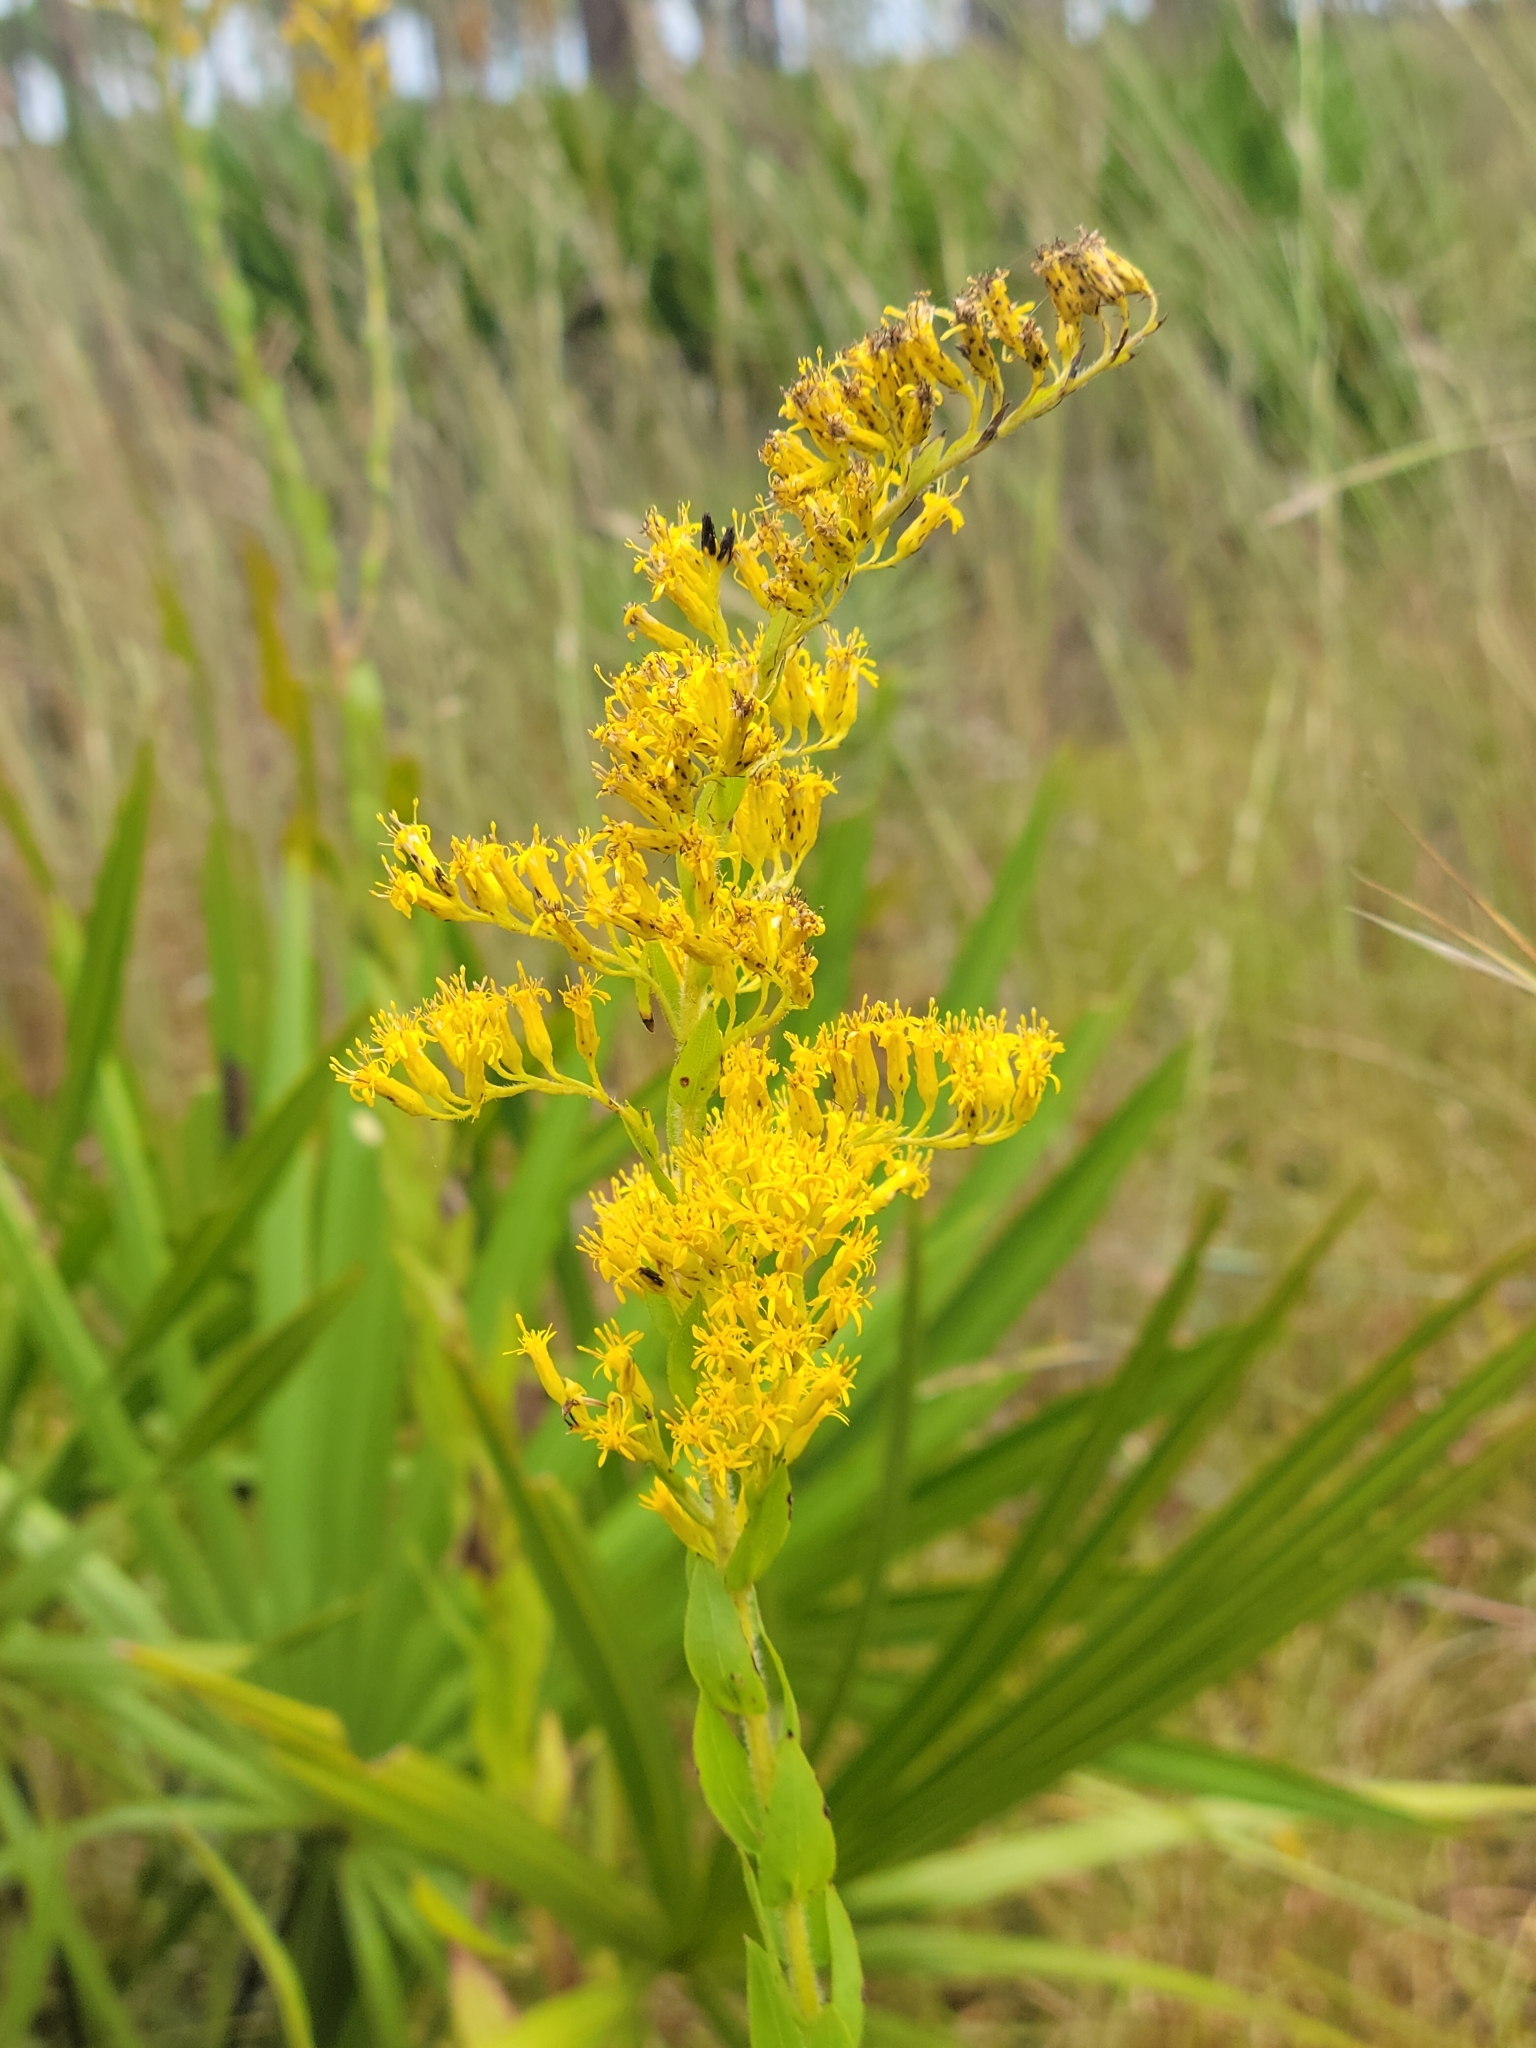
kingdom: Plantae
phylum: Tracheophyta
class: Magnoliopsida
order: Asterales
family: Asteraceae
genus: Solidago
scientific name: Solidago fistulosa
